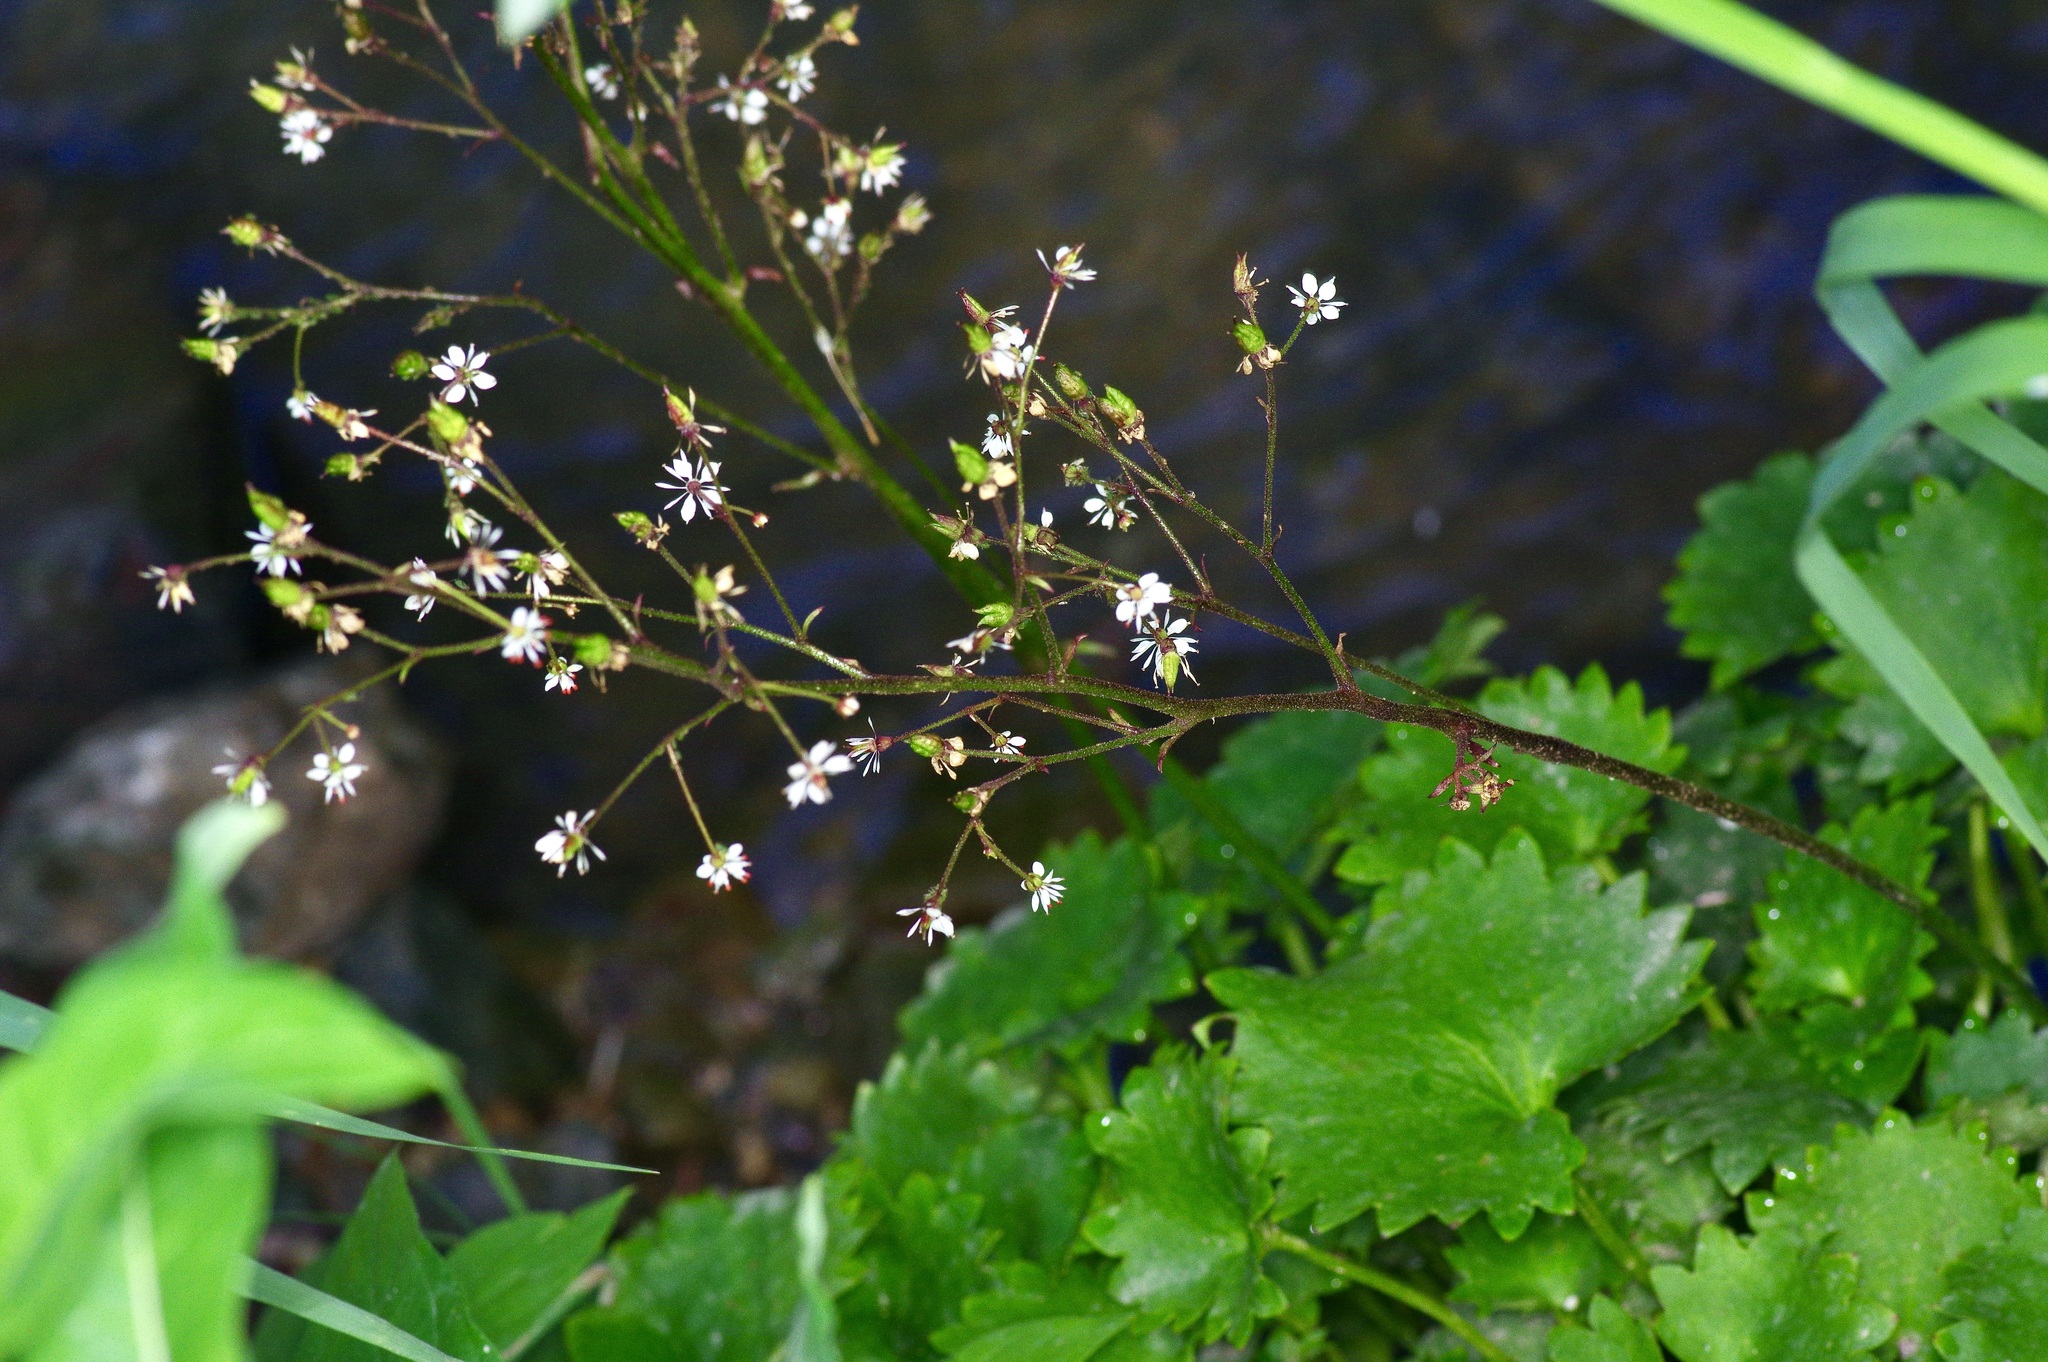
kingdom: Plantae
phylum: Tracheophyta
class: Magnoliopsida
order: Saxifragales
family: Saxifragaceae
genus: Micranthes
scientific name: Micranthes odontoloma
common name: Brook saxifrage
